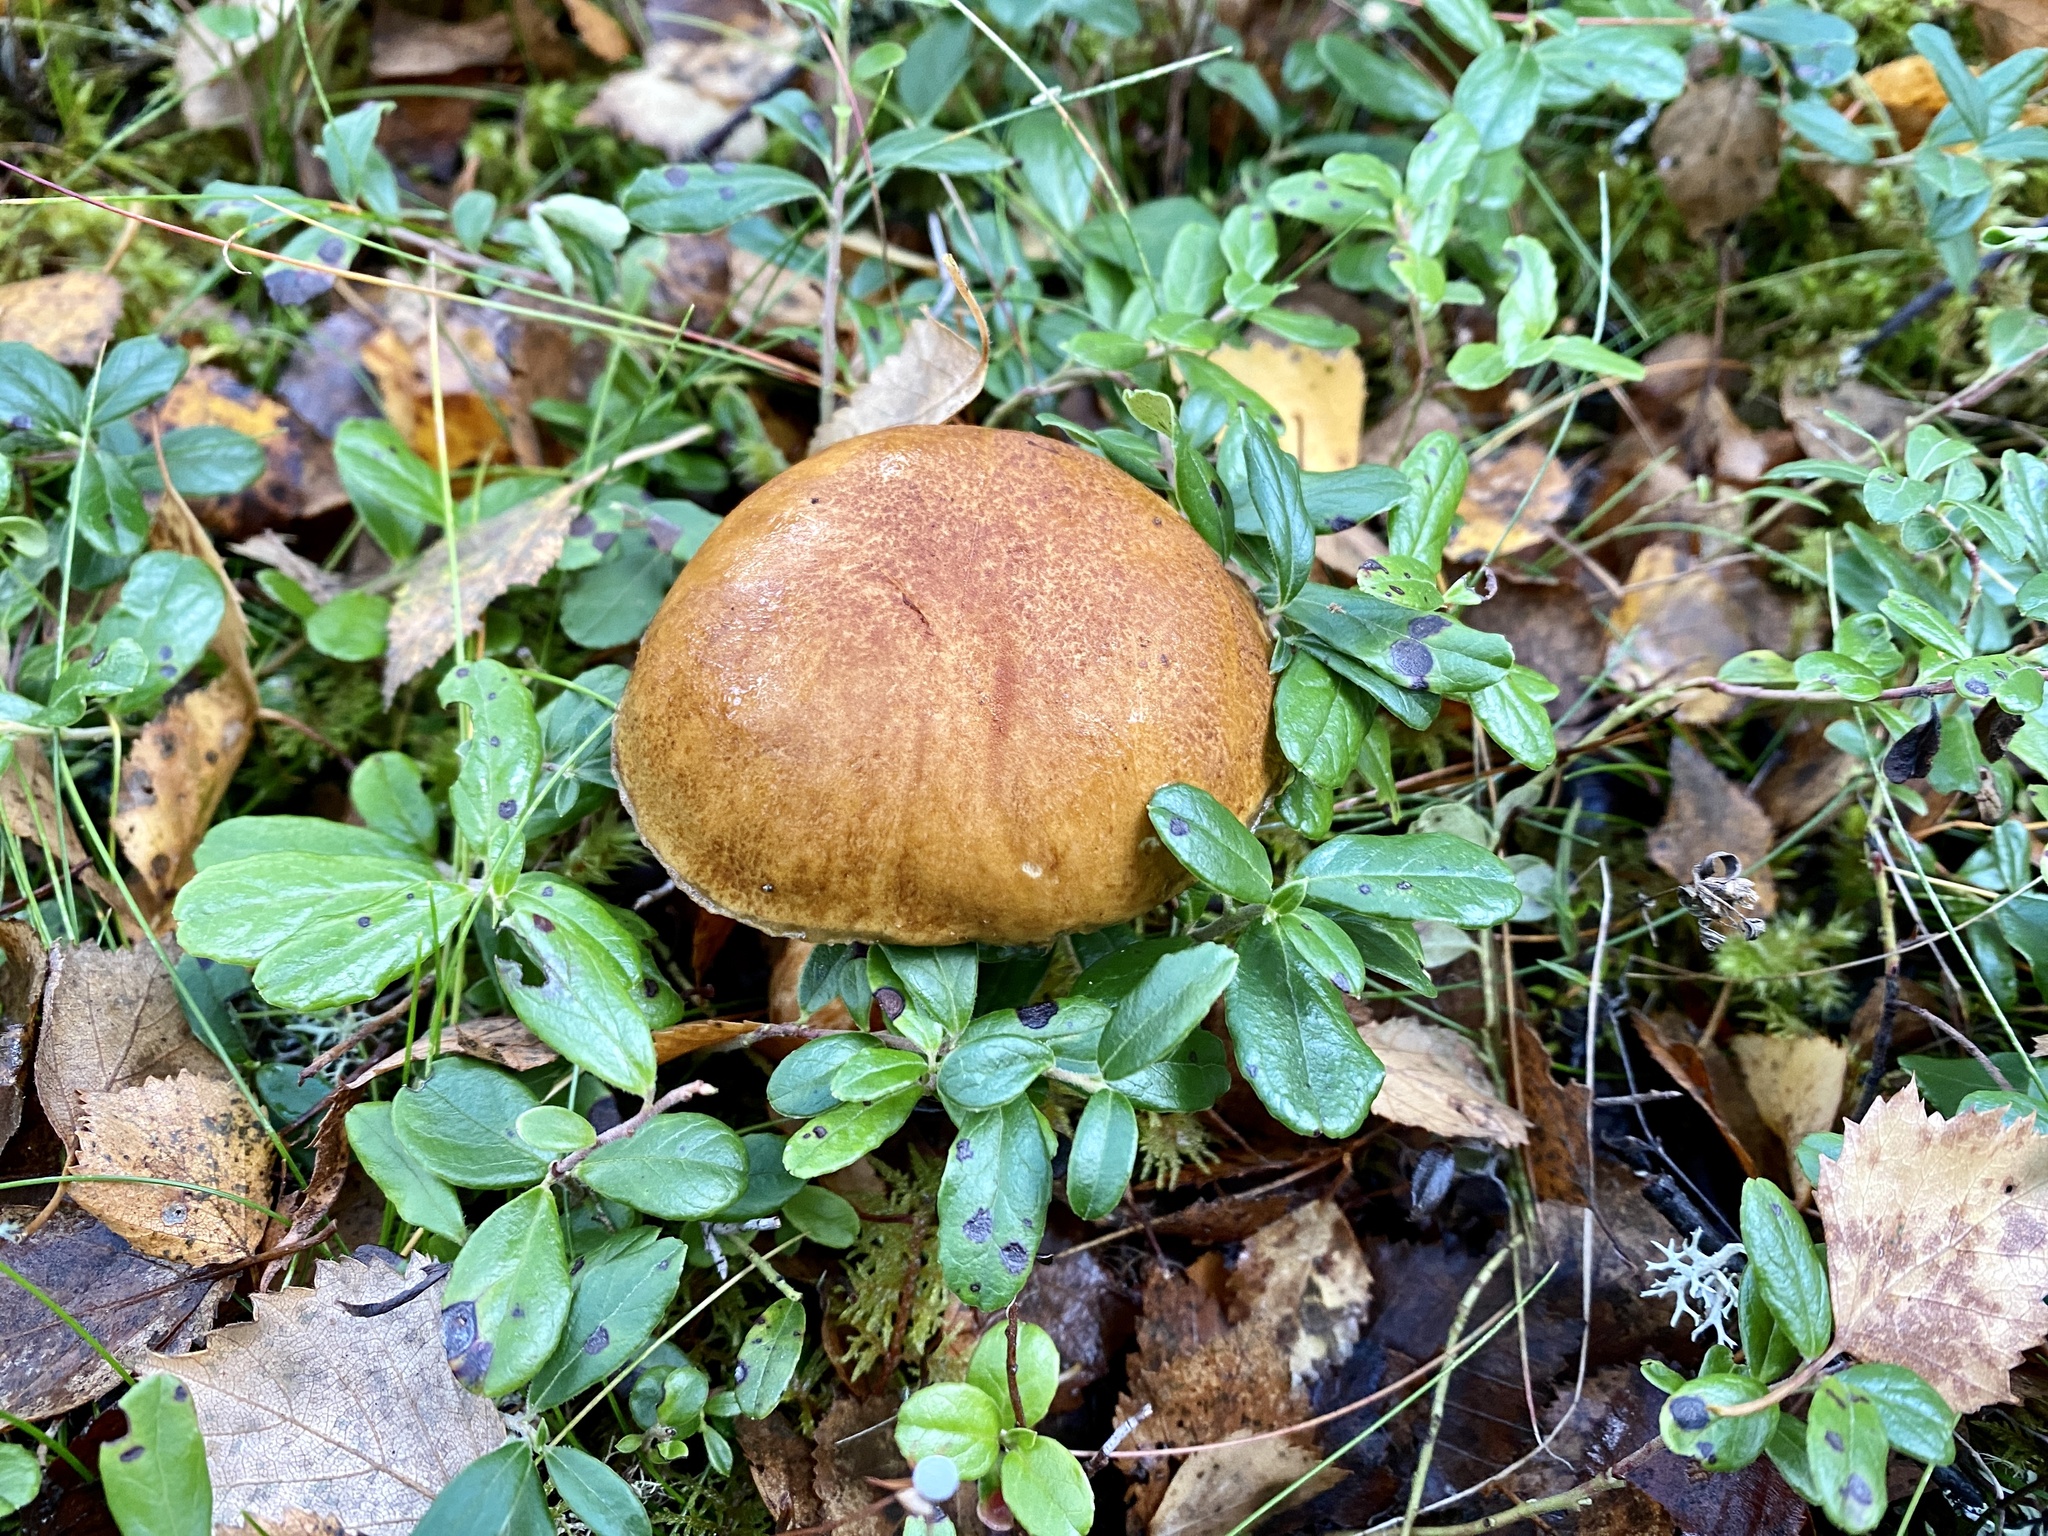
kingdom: Fungi
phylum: Basidiomycota
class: Agaricomycetes
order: Boletales
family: Suillaceae
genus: Suillus
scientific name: Suillus variegatus
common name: Velvet bolete
